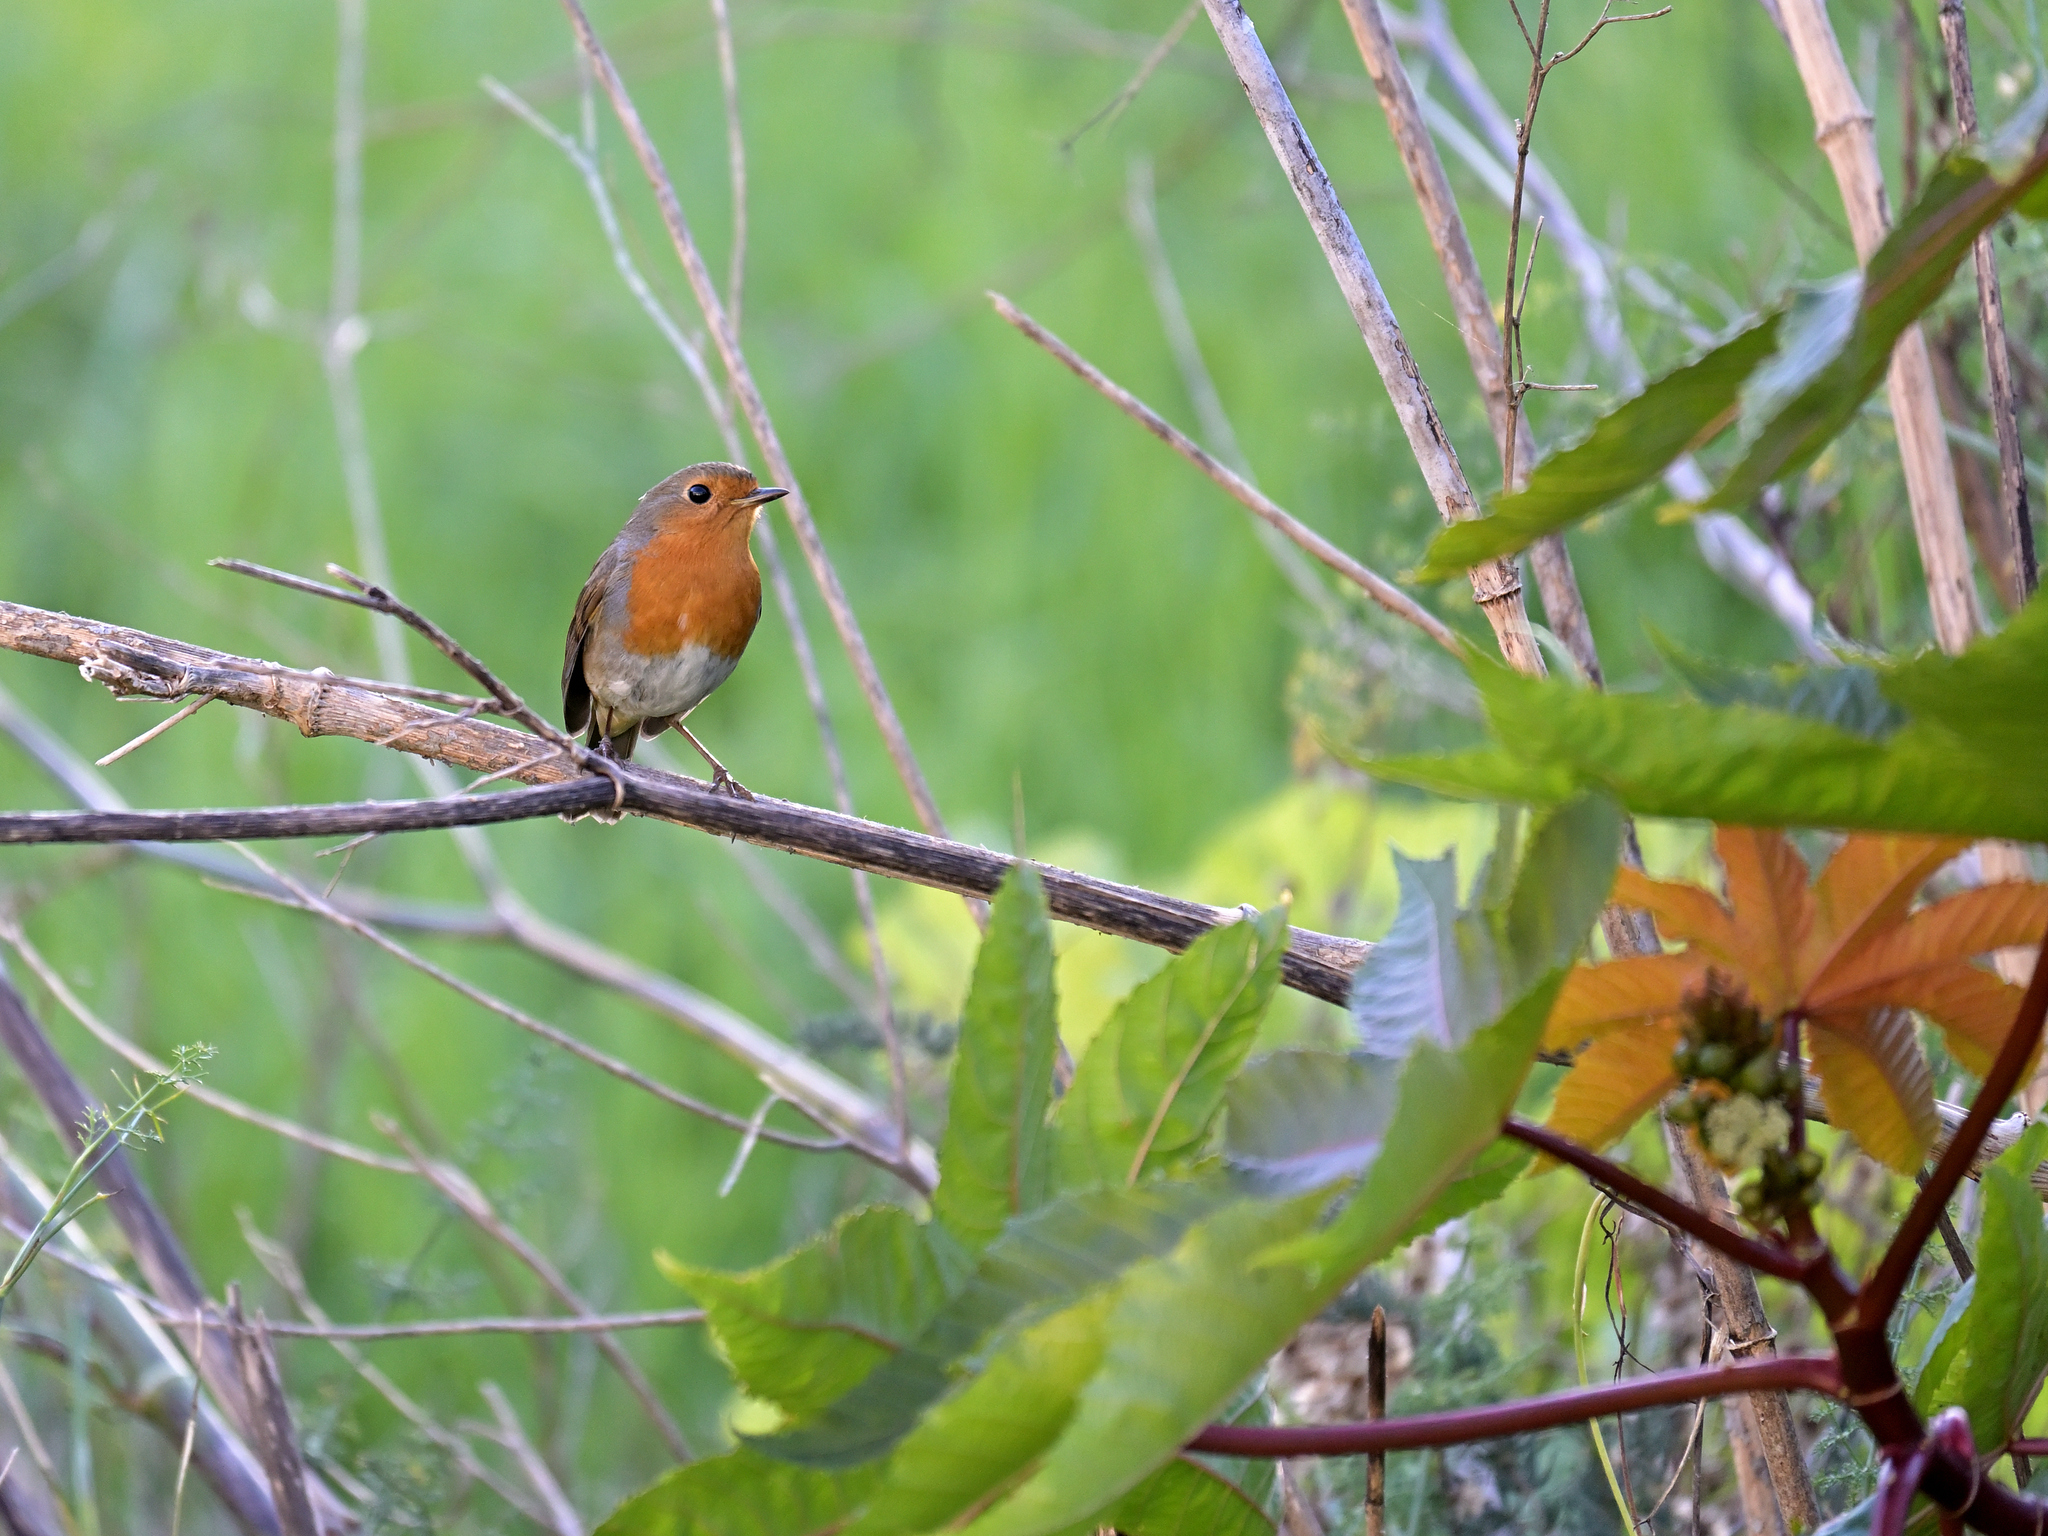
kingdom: Animalia
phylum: Chordata
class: Aves
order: Passeriformes
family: Muscicapidae
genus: Erithacus
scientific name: Erithacus rubecula
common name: European robin
